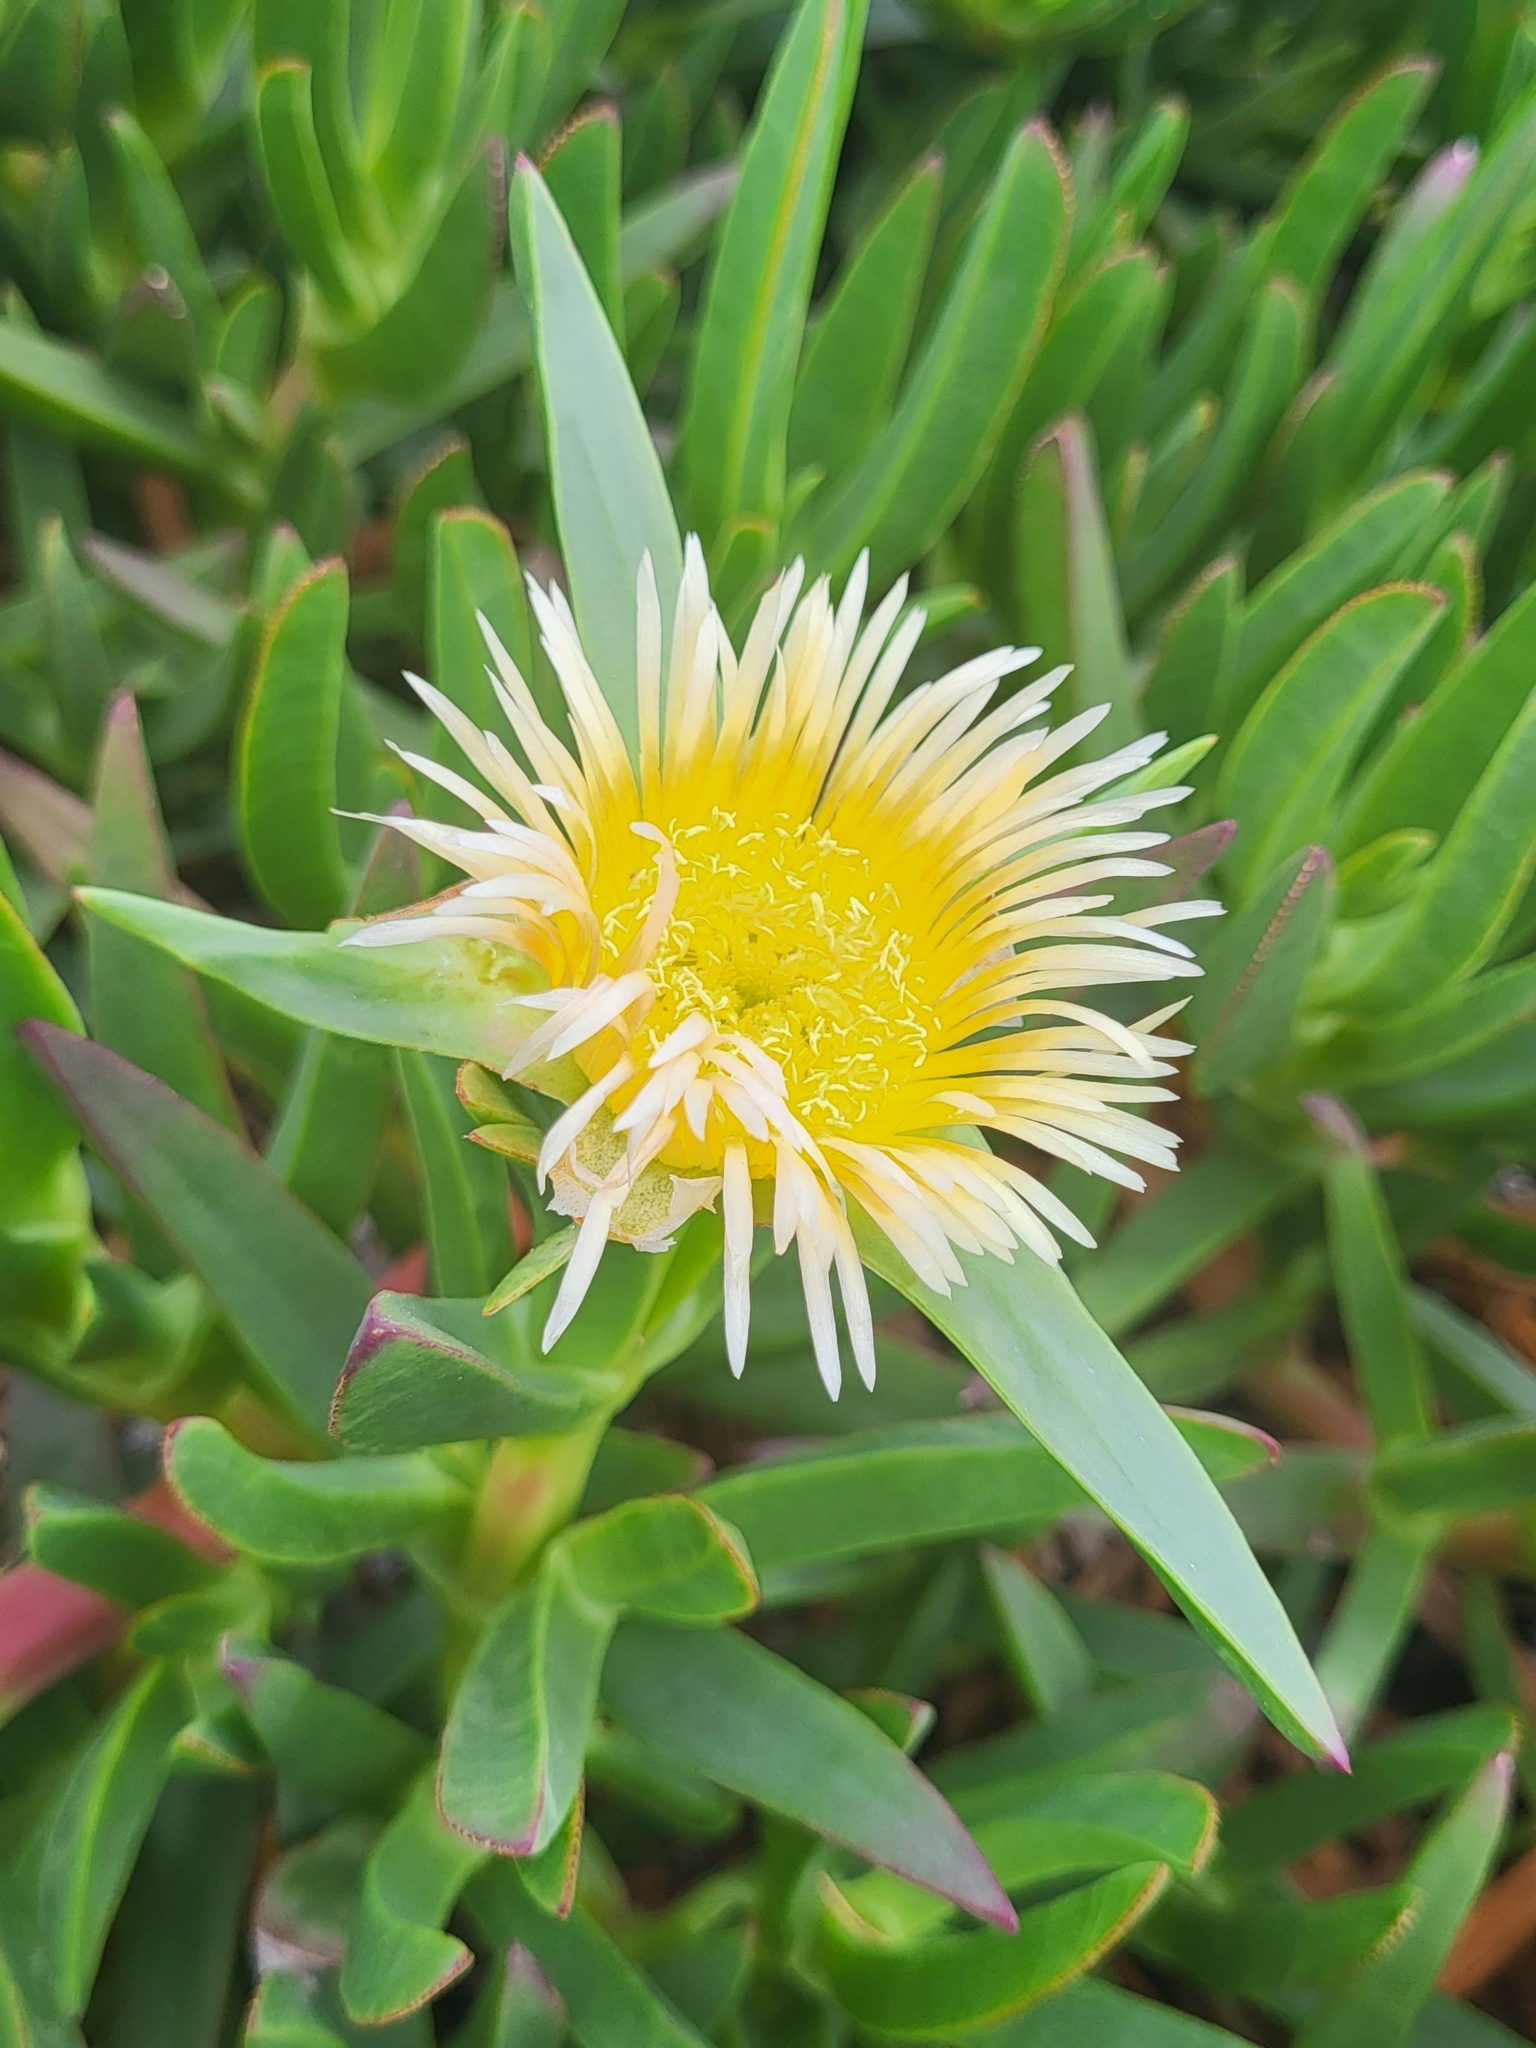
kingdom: Plantae
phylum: Tracheophyta
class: Magnoliopsida
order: Caryophyllales
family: Aizoaceae
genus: Carpobrotus
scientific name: Carpobrotus edulis
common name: Hottentot-fig
